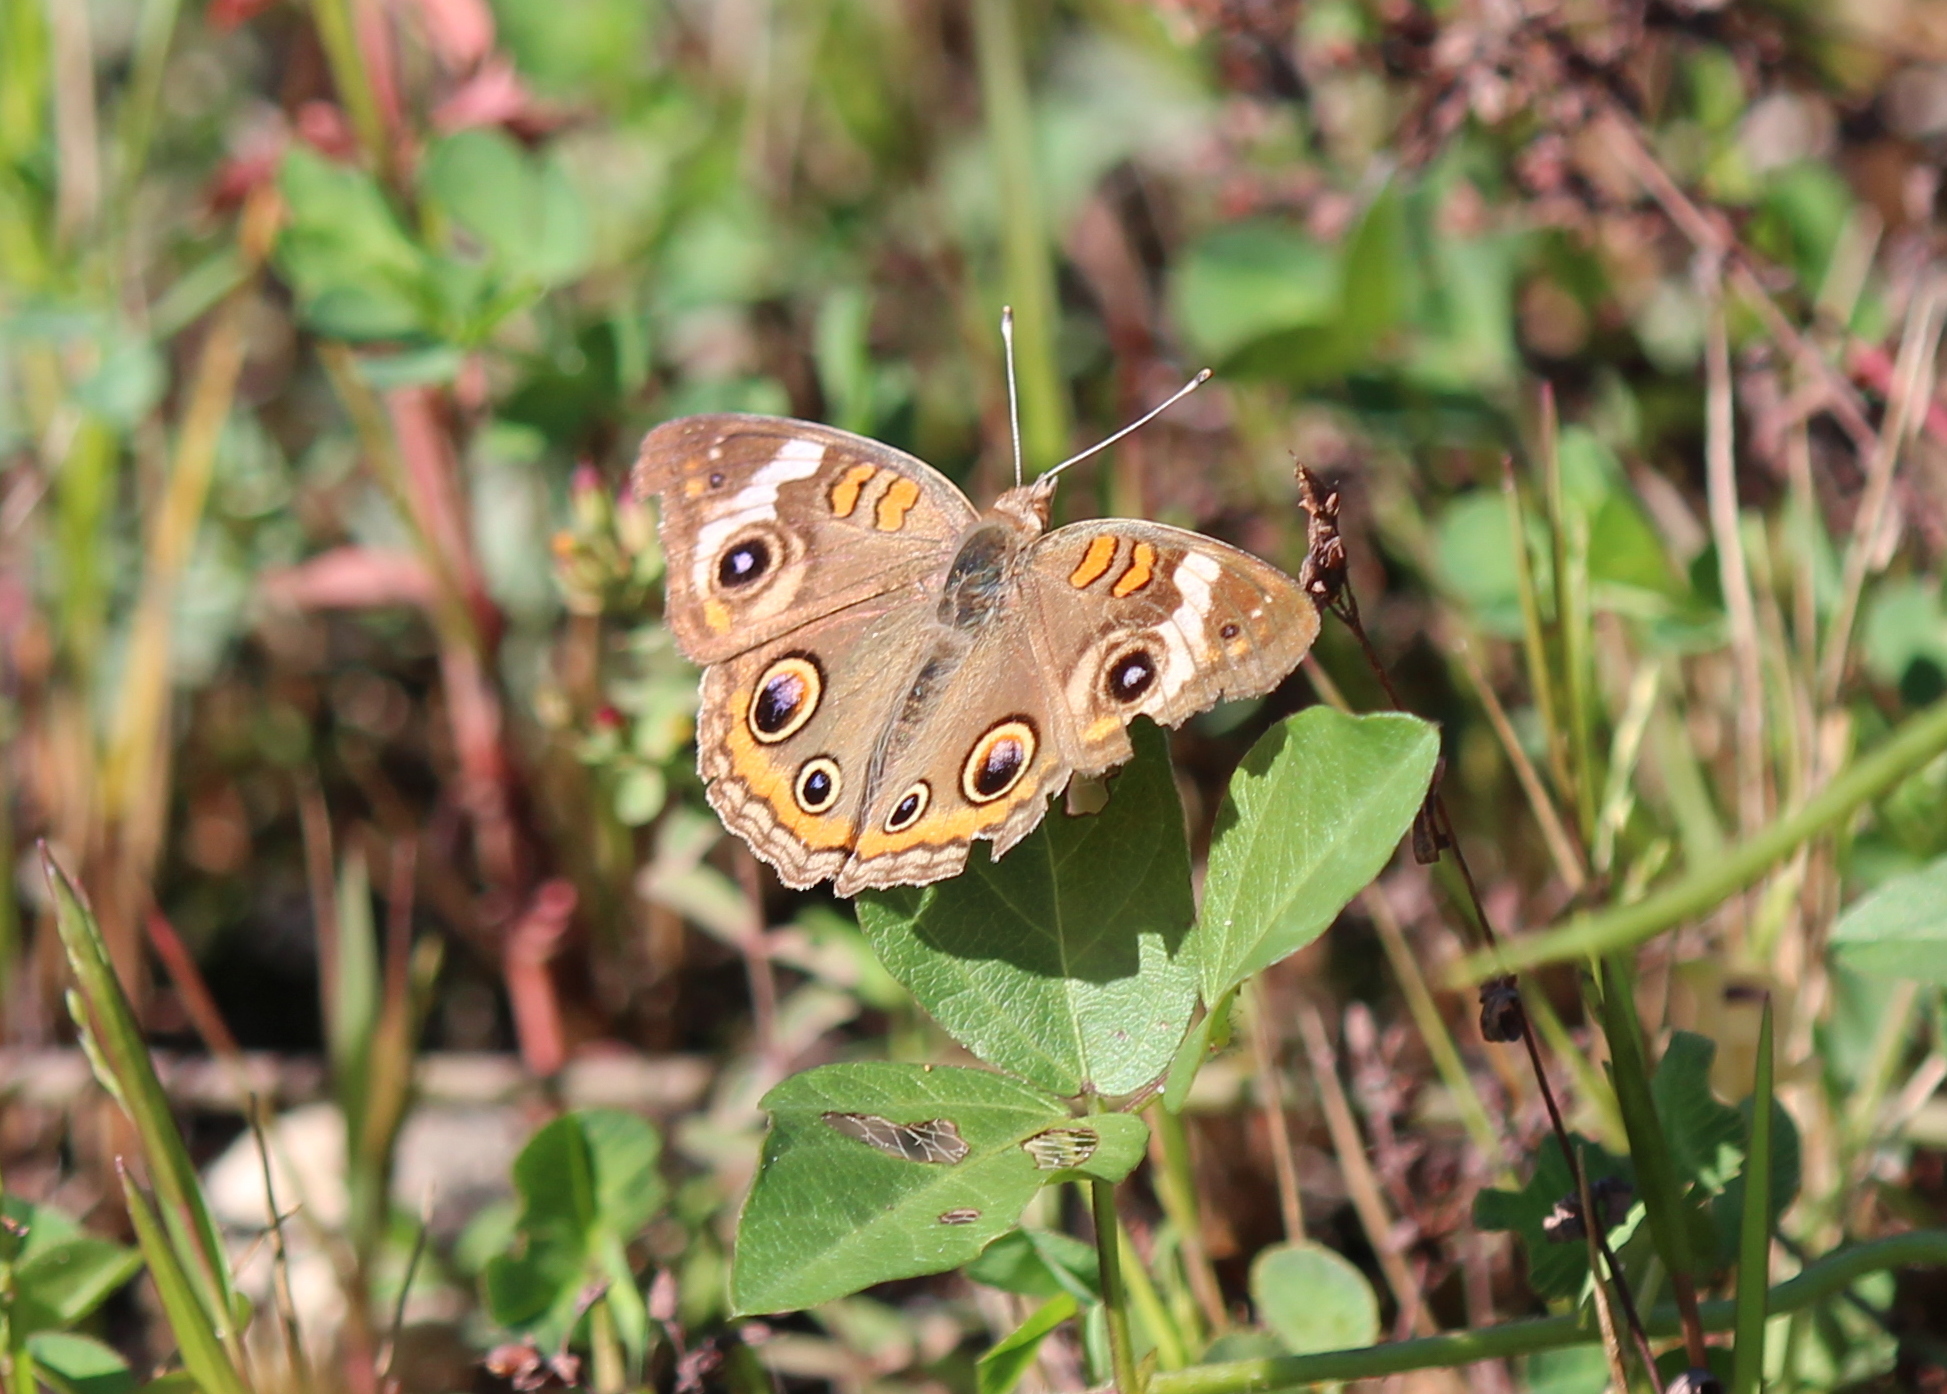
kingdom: Animalia
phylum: Arthropoda
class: Insecta
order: Lepidoptera
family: Nymphalidae
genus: Junonia
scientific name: Junonia coenia
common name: Common buckeye
